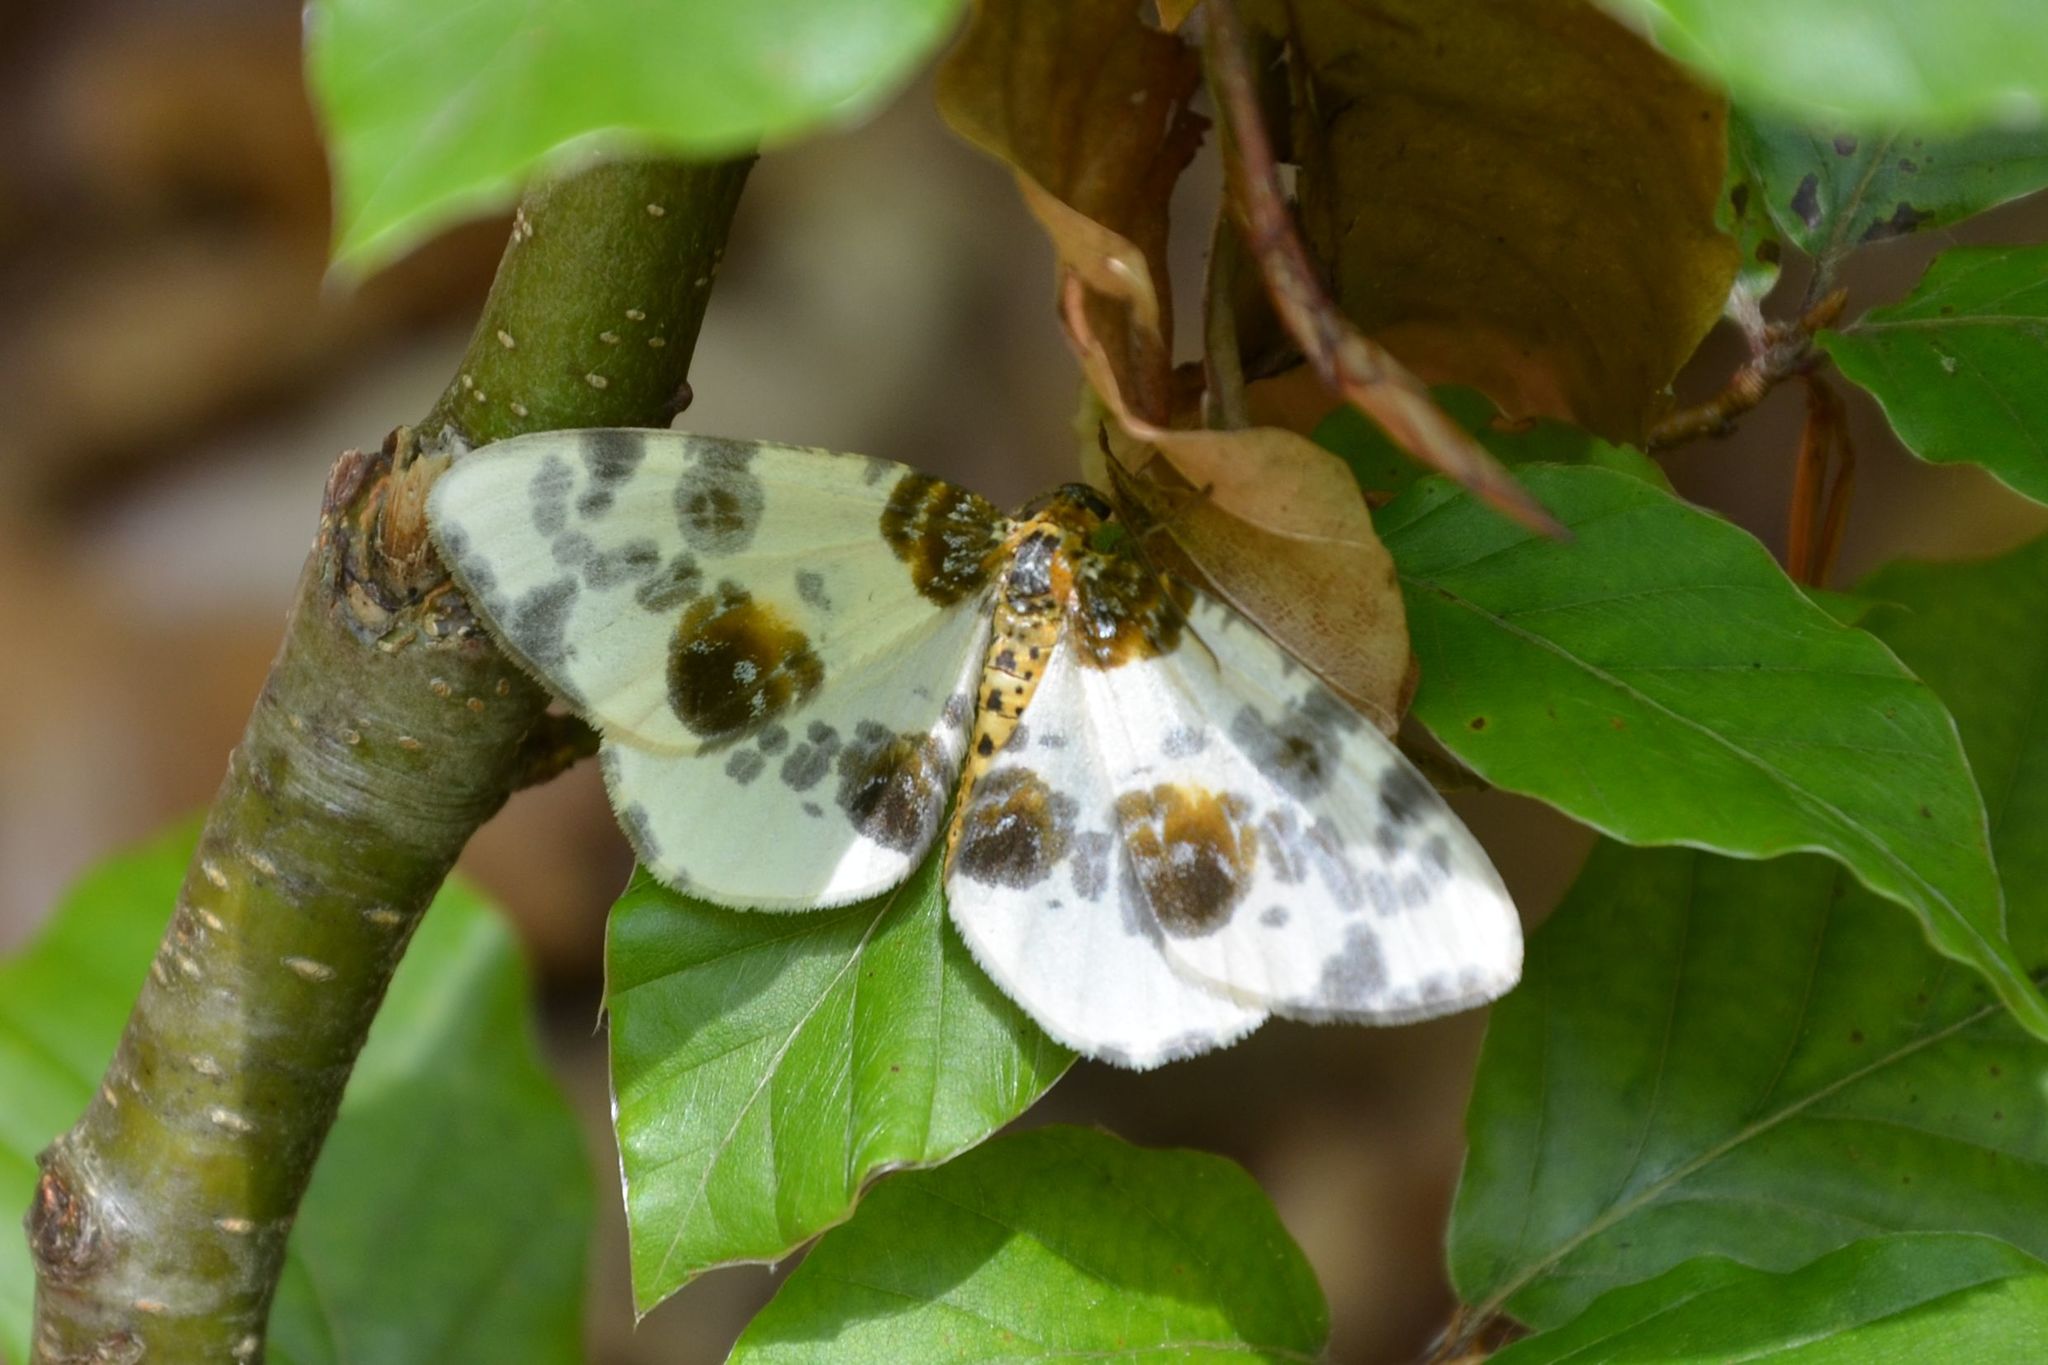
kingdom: Animalia
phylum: Arthropoda
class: Insecta
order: Lepidoptera
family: Geometridae
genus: Abraxas
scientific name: Abraxas sylvata
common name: Clouded magpie
